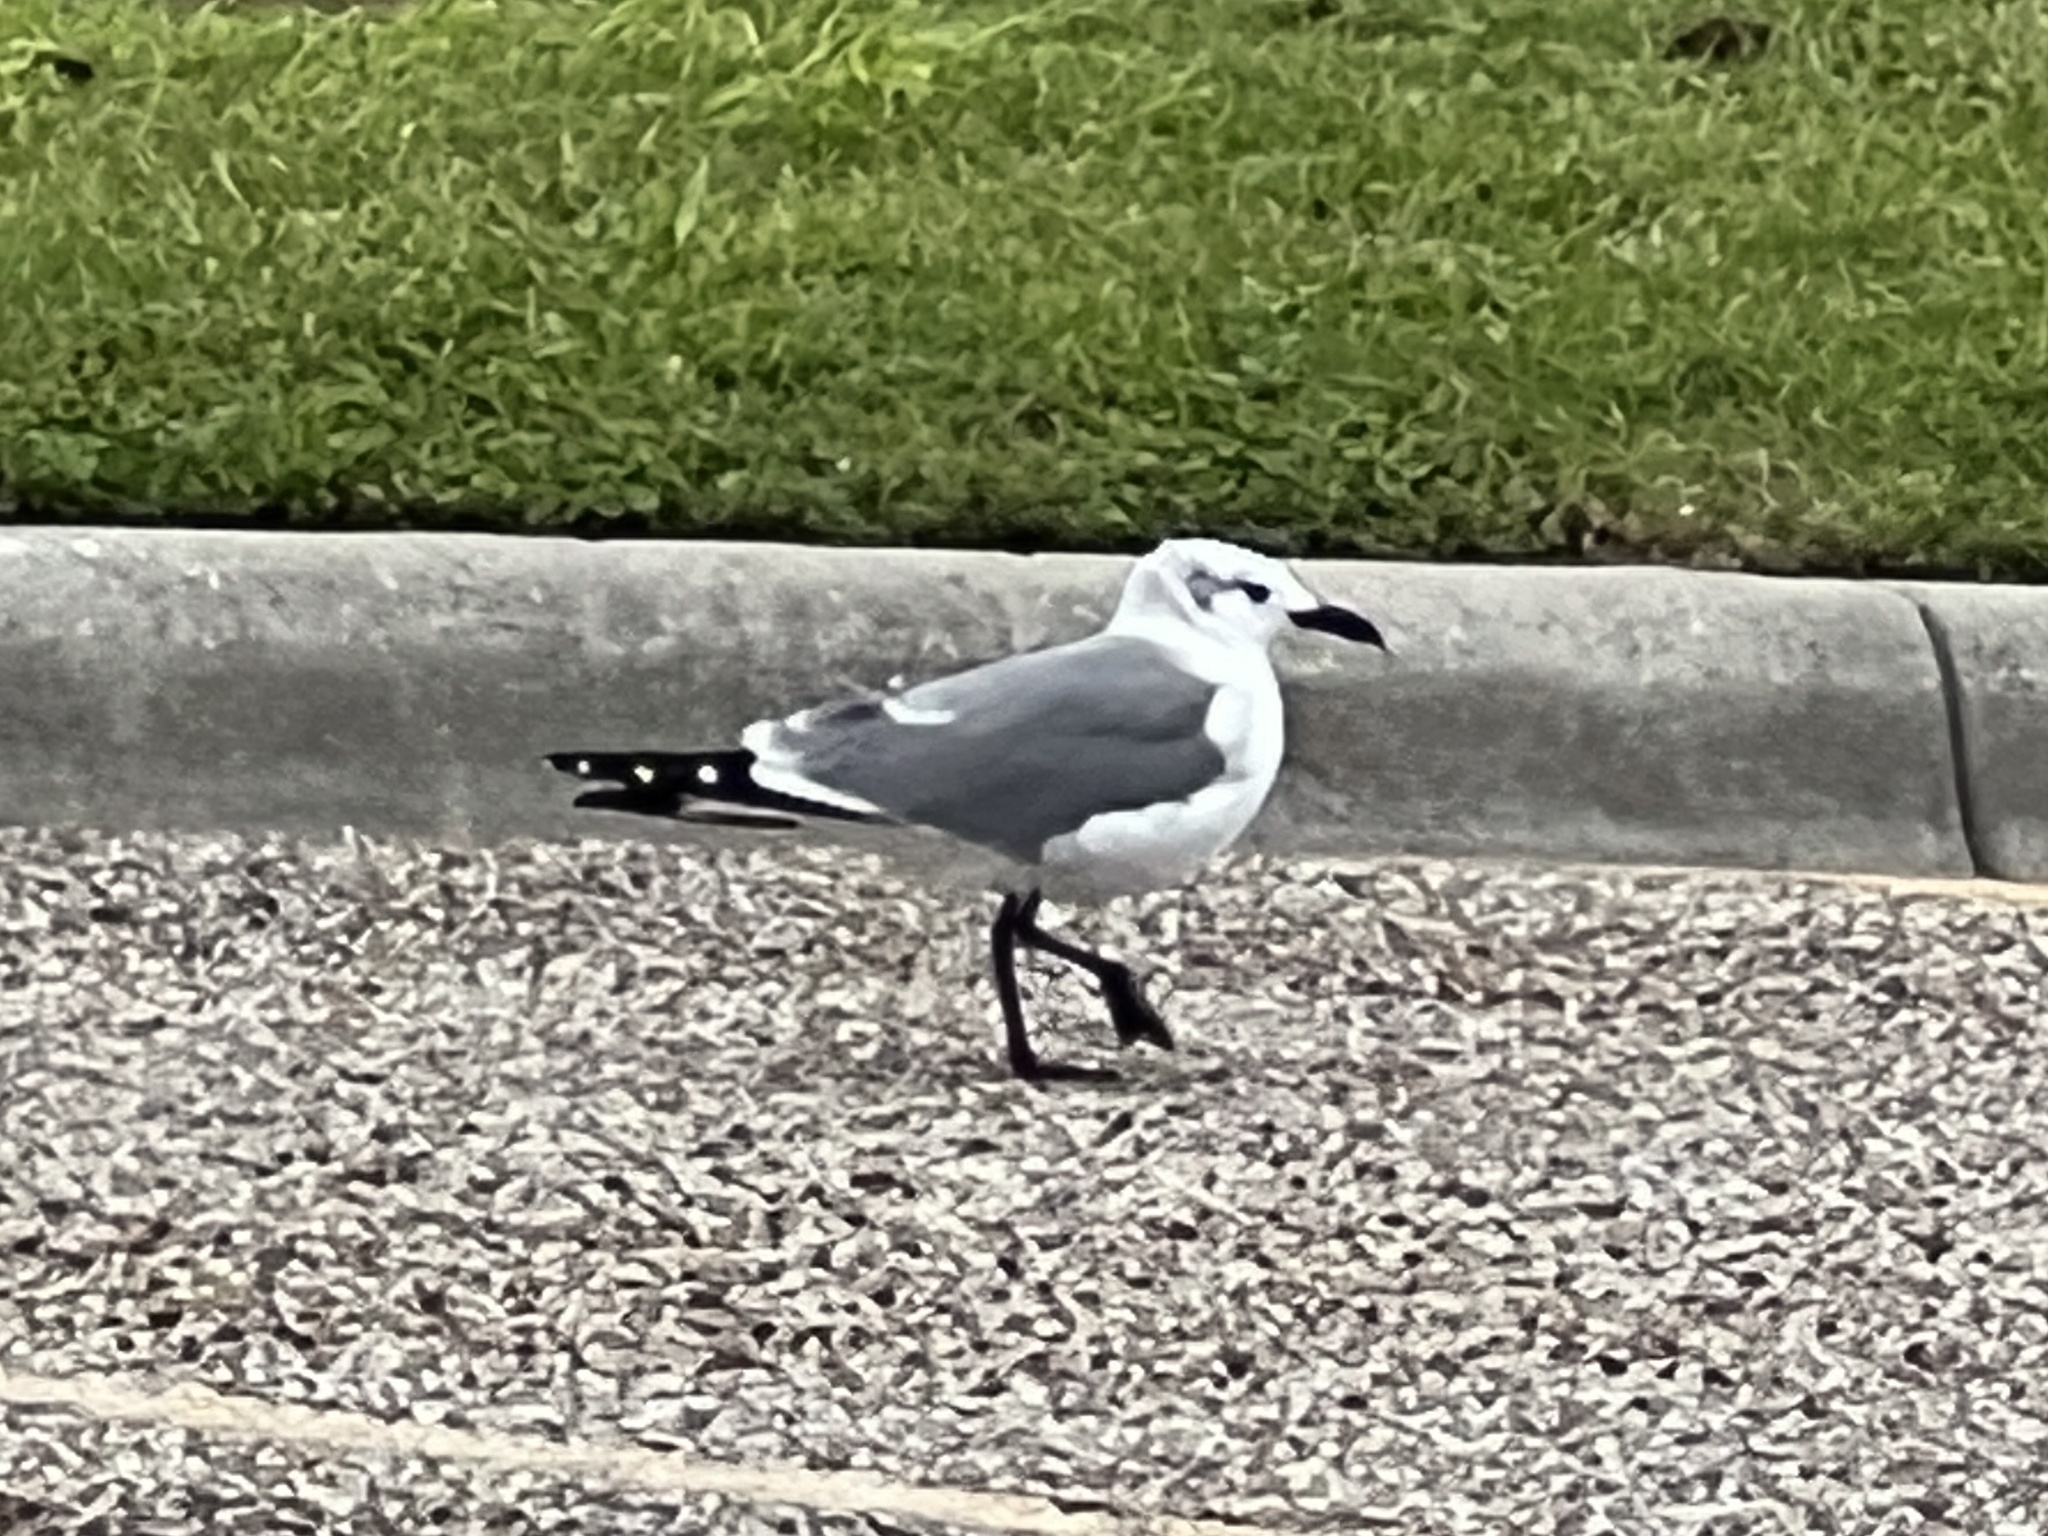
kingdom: Animalia
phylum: Chordata
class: Aves
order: Charadriiformes
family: Laridae
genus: Leucophaeus
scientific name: Leucophaeus atricilla
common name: Laughing gull
